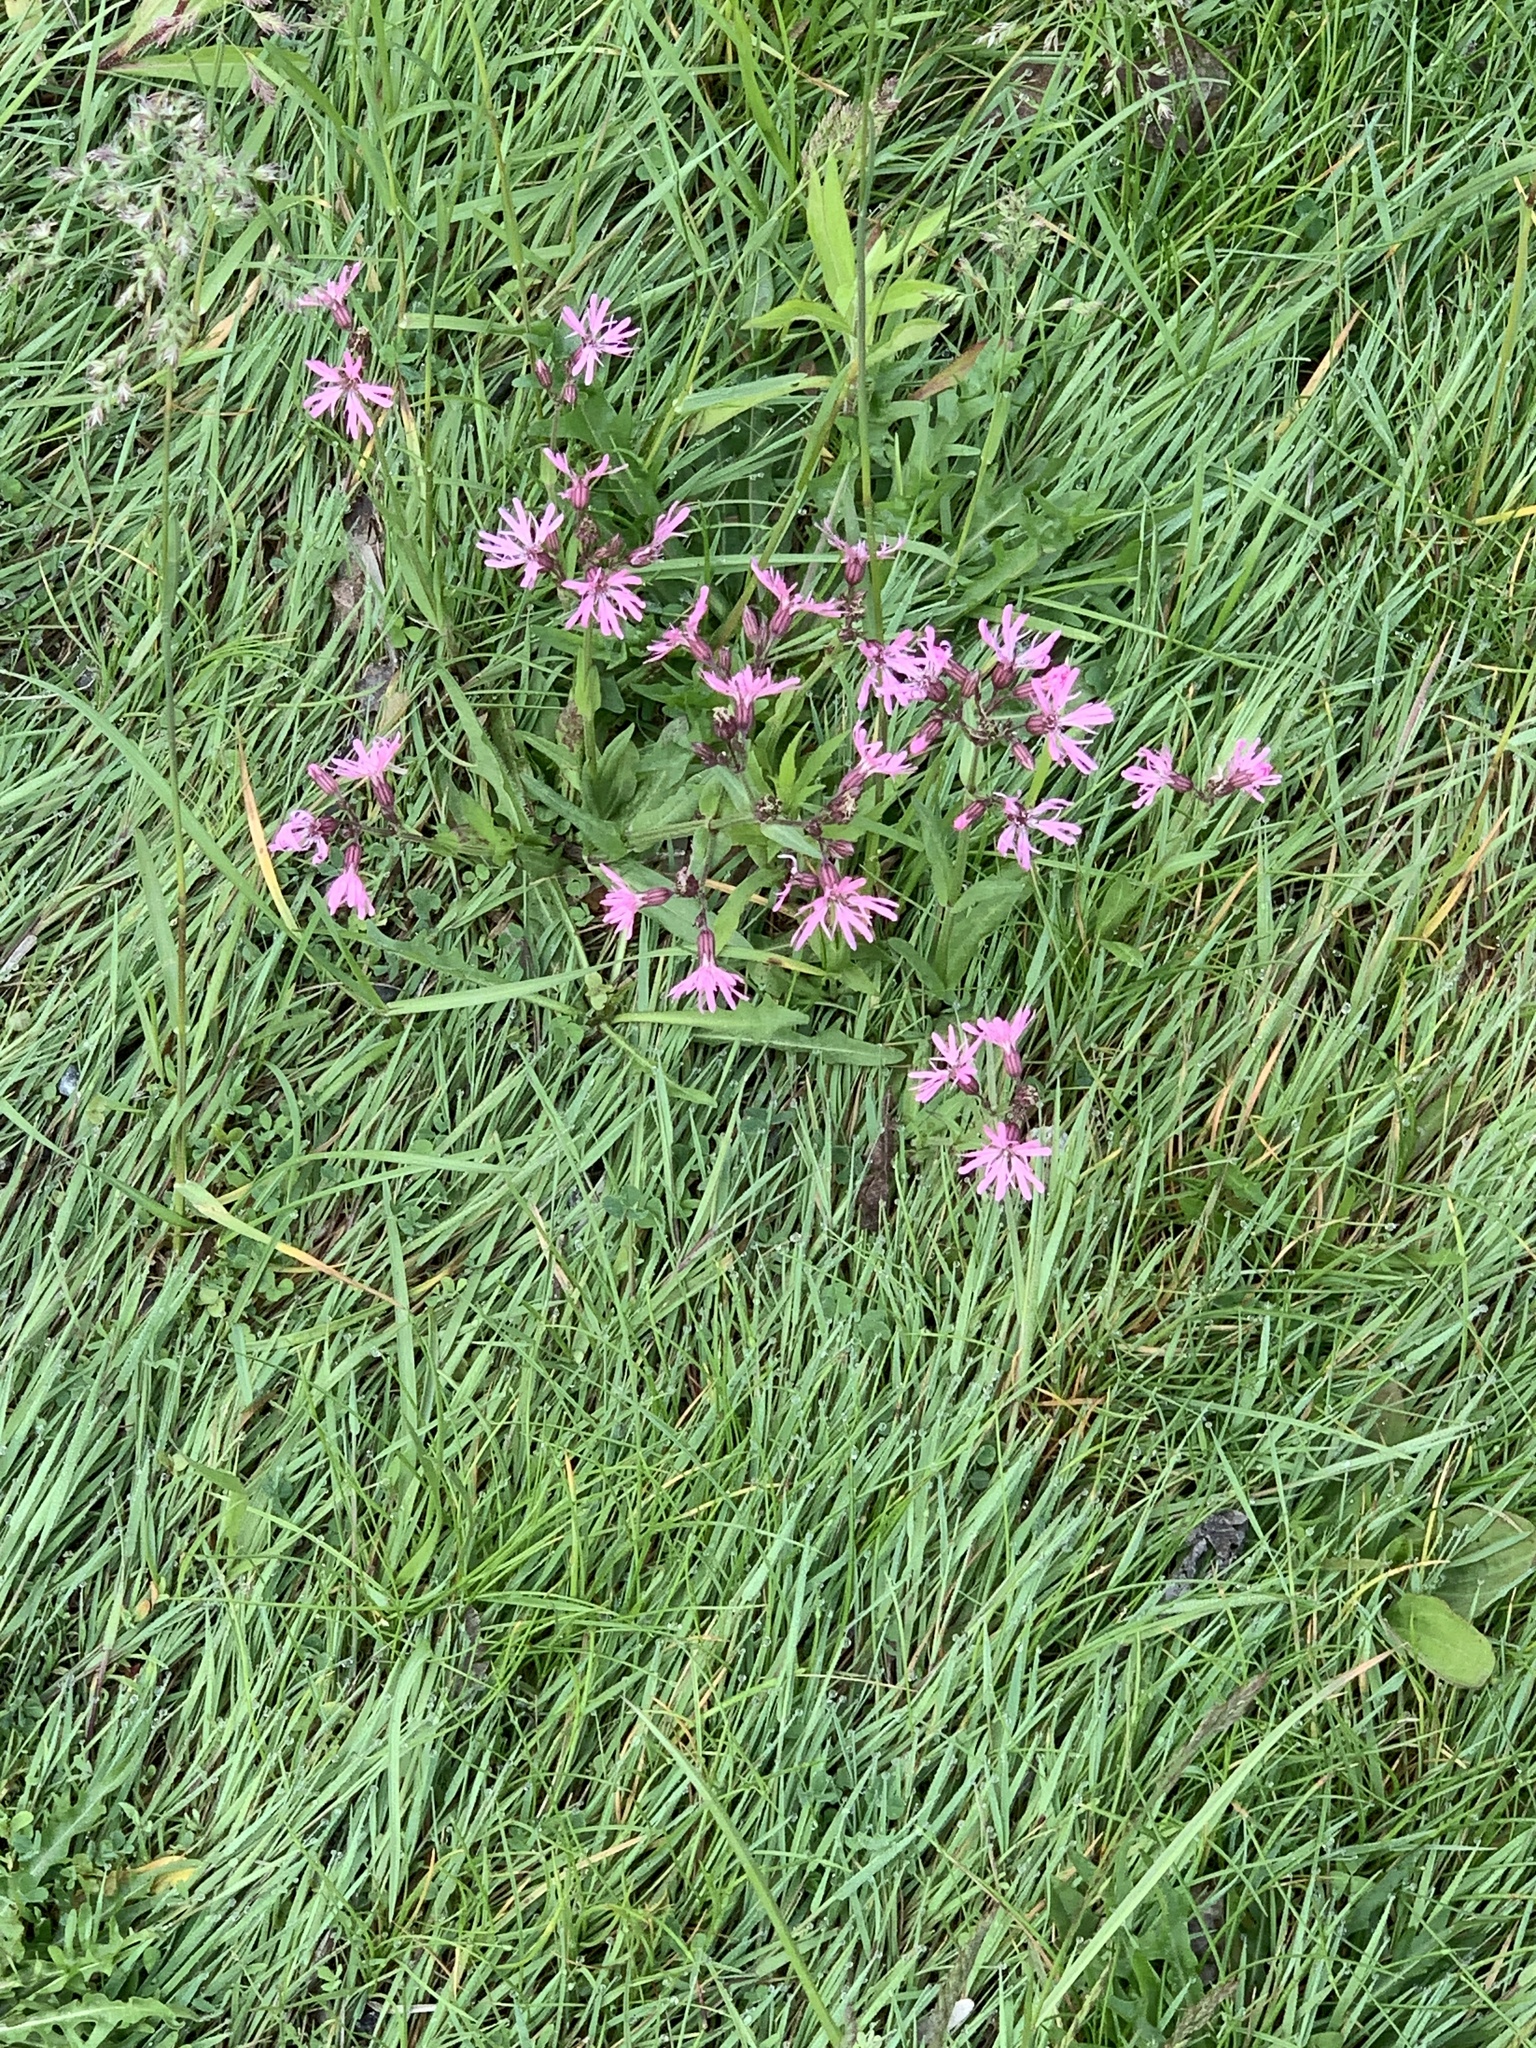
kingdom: Plantae
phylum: Tracheophyta
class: Magnoliopsida
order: Caryophyllales
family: Caryophyllaceae
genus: Silene
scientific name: Silene flos-cuculi
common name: Ragged-robin
